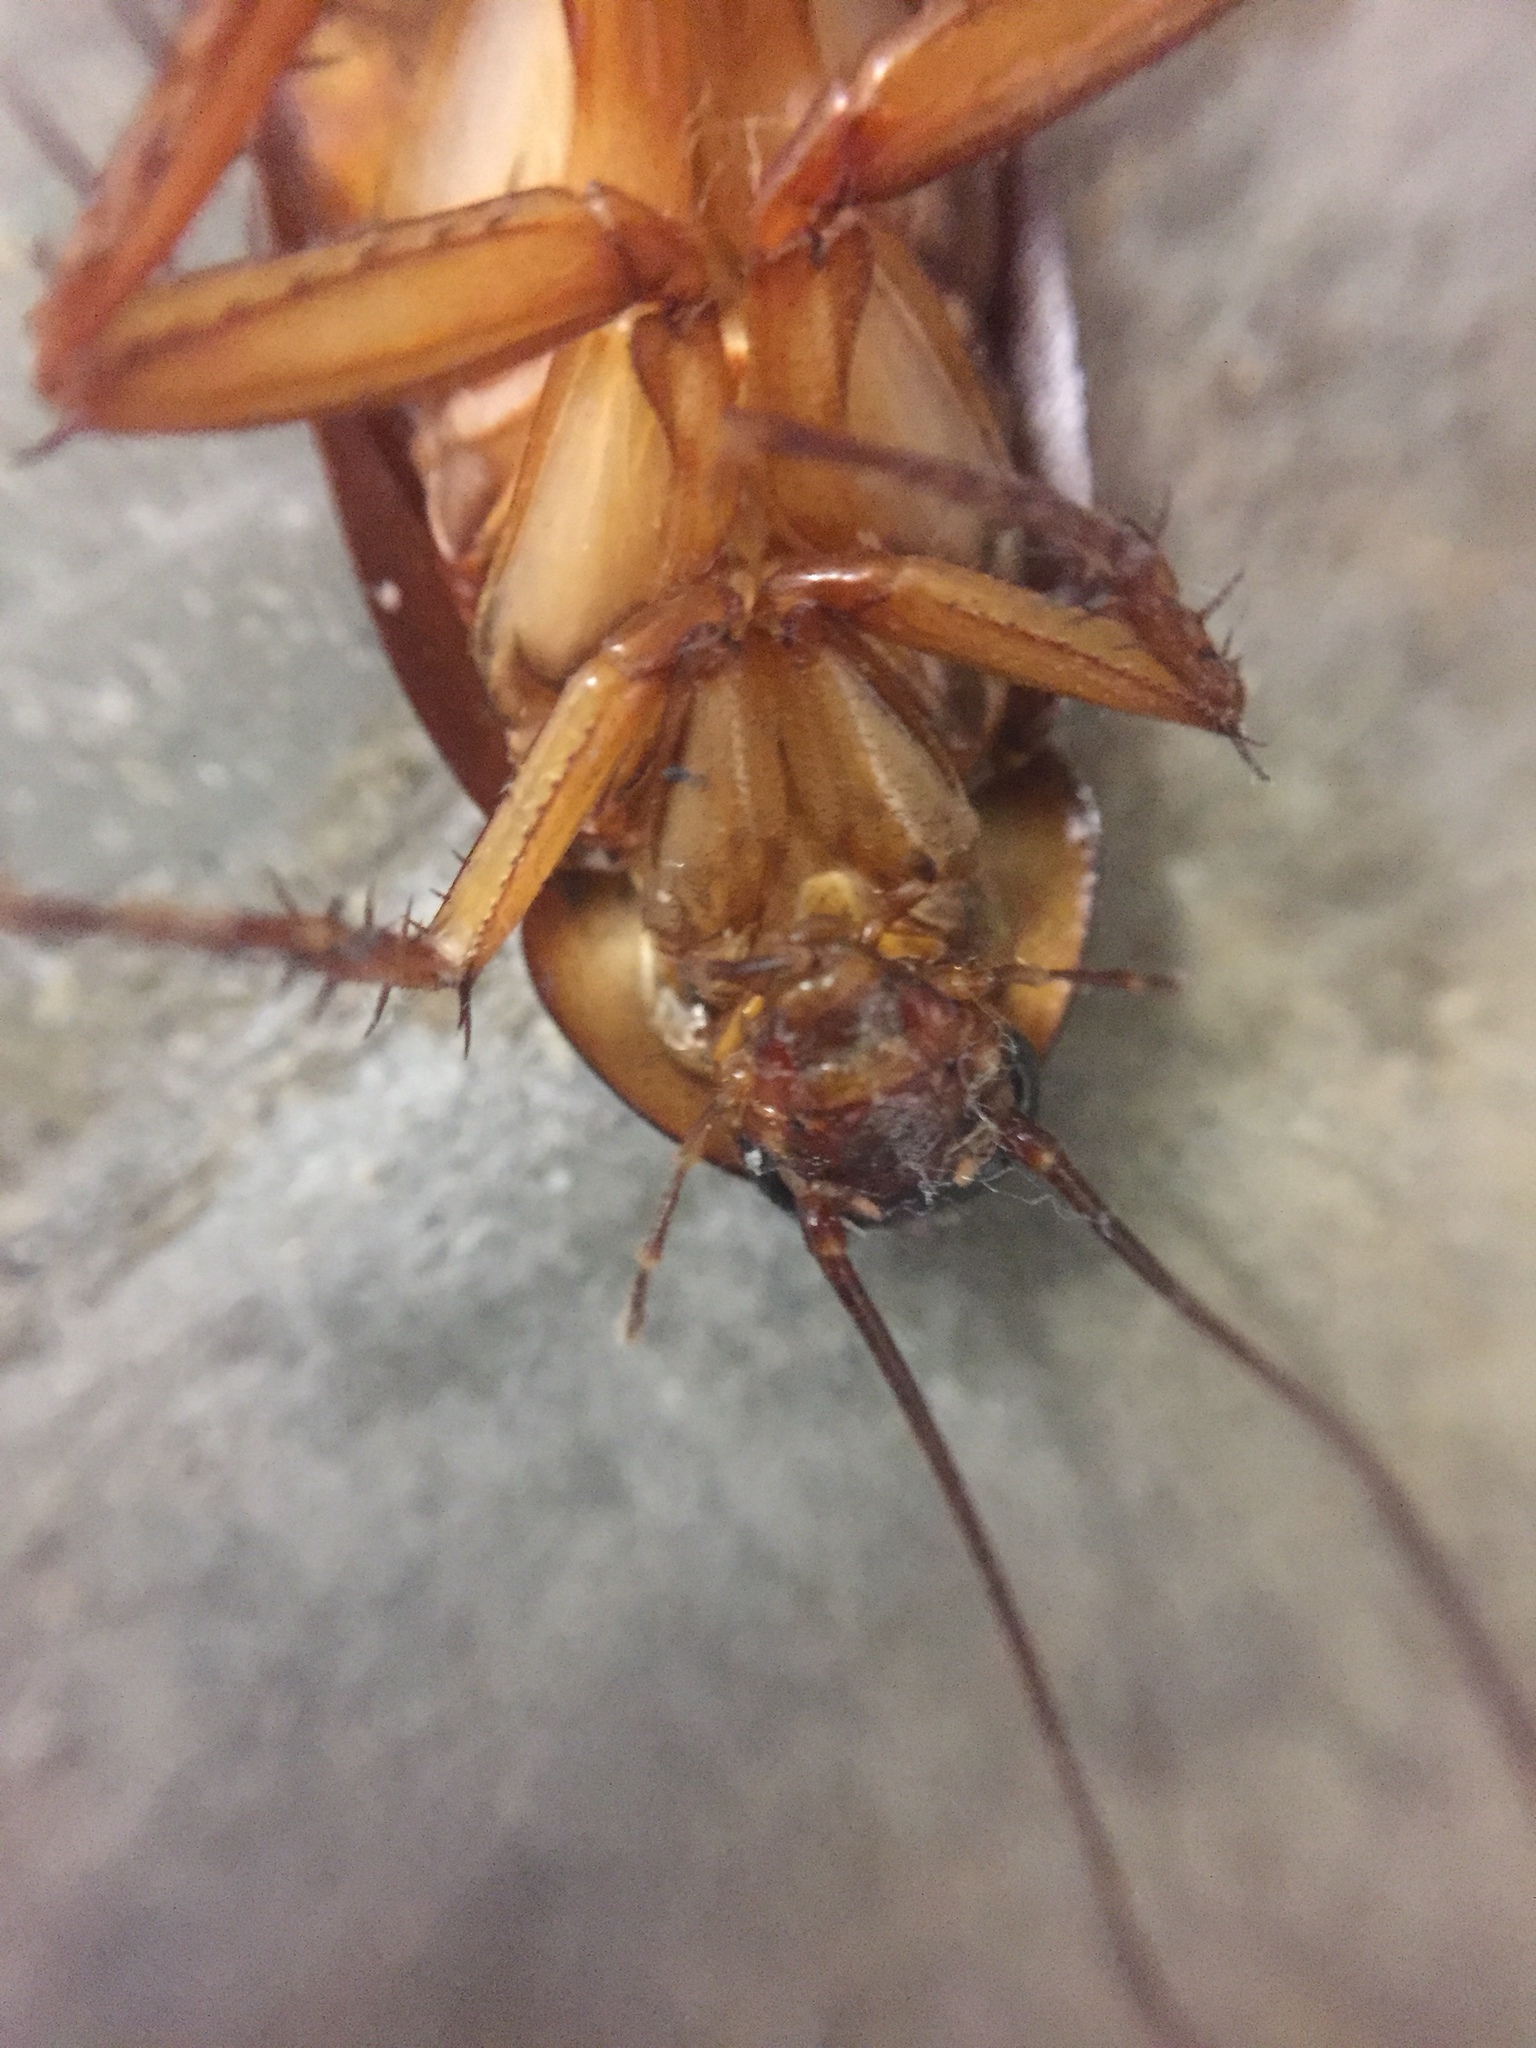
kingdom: Animalia
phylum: Arthropoda
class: Insecta
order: Blattodea
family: Blattidae
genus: Periplaneta
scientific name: Periplaneta americana
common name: American cockroach
